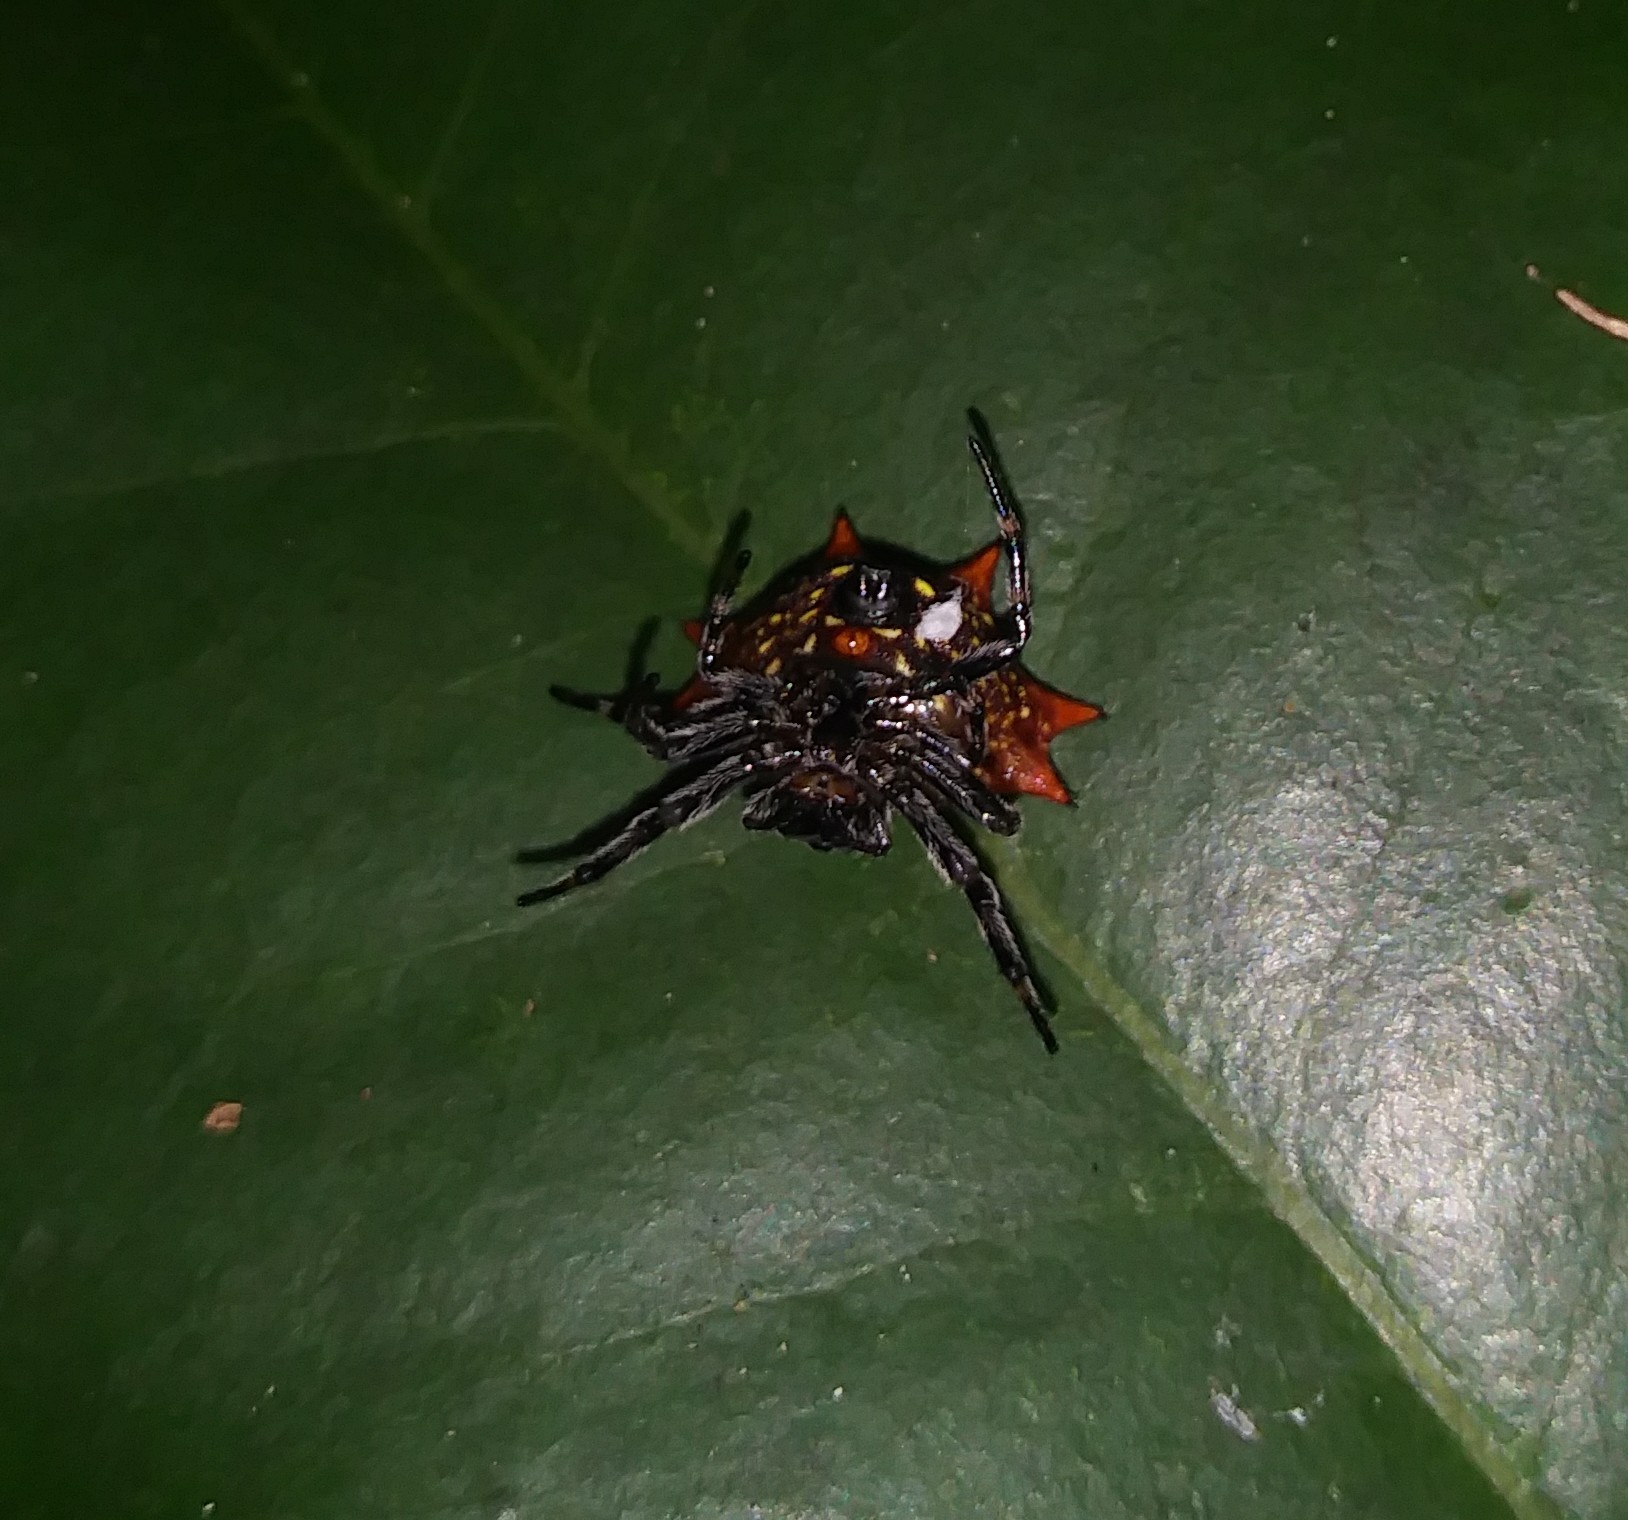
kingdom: Animalia
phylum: Arthropoda
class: Arachnida
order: Araneae
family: Araneidae
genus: Gasteracantha
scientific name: Gasteracantha cancriformis
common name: Orb weavers
